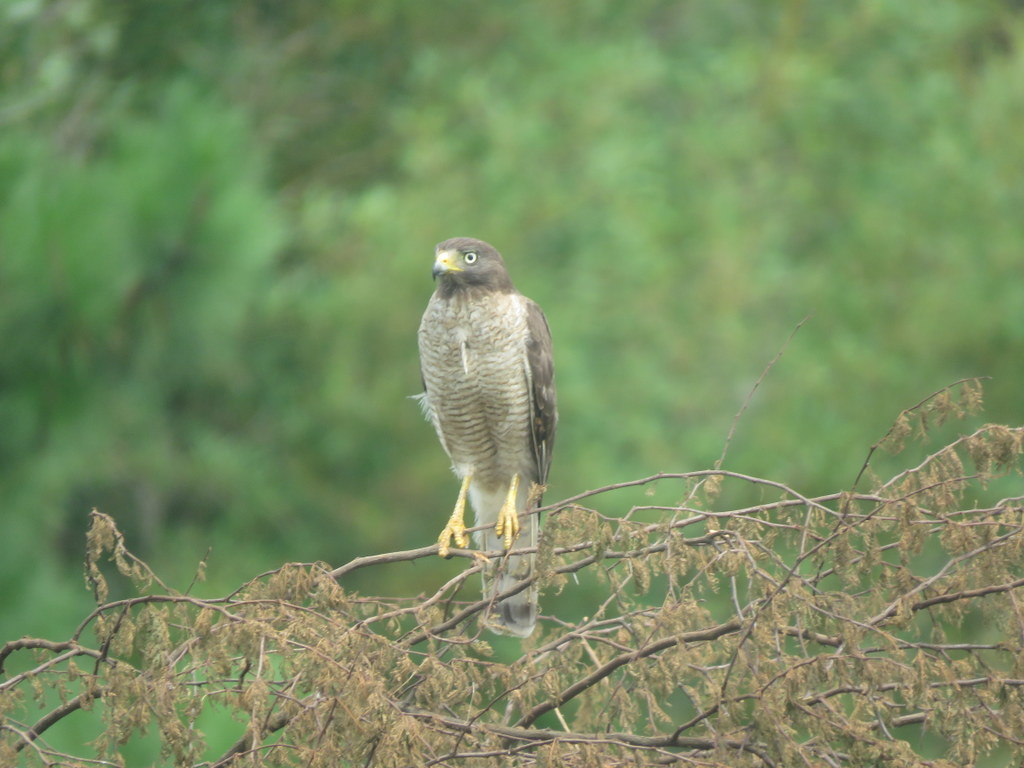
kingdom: Animalia
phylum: Chordata
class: Aves
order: Accipitriformes
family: Accipitridae
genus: Rupornis
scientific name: Rupornis magnirostris
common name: Roadside hawk
